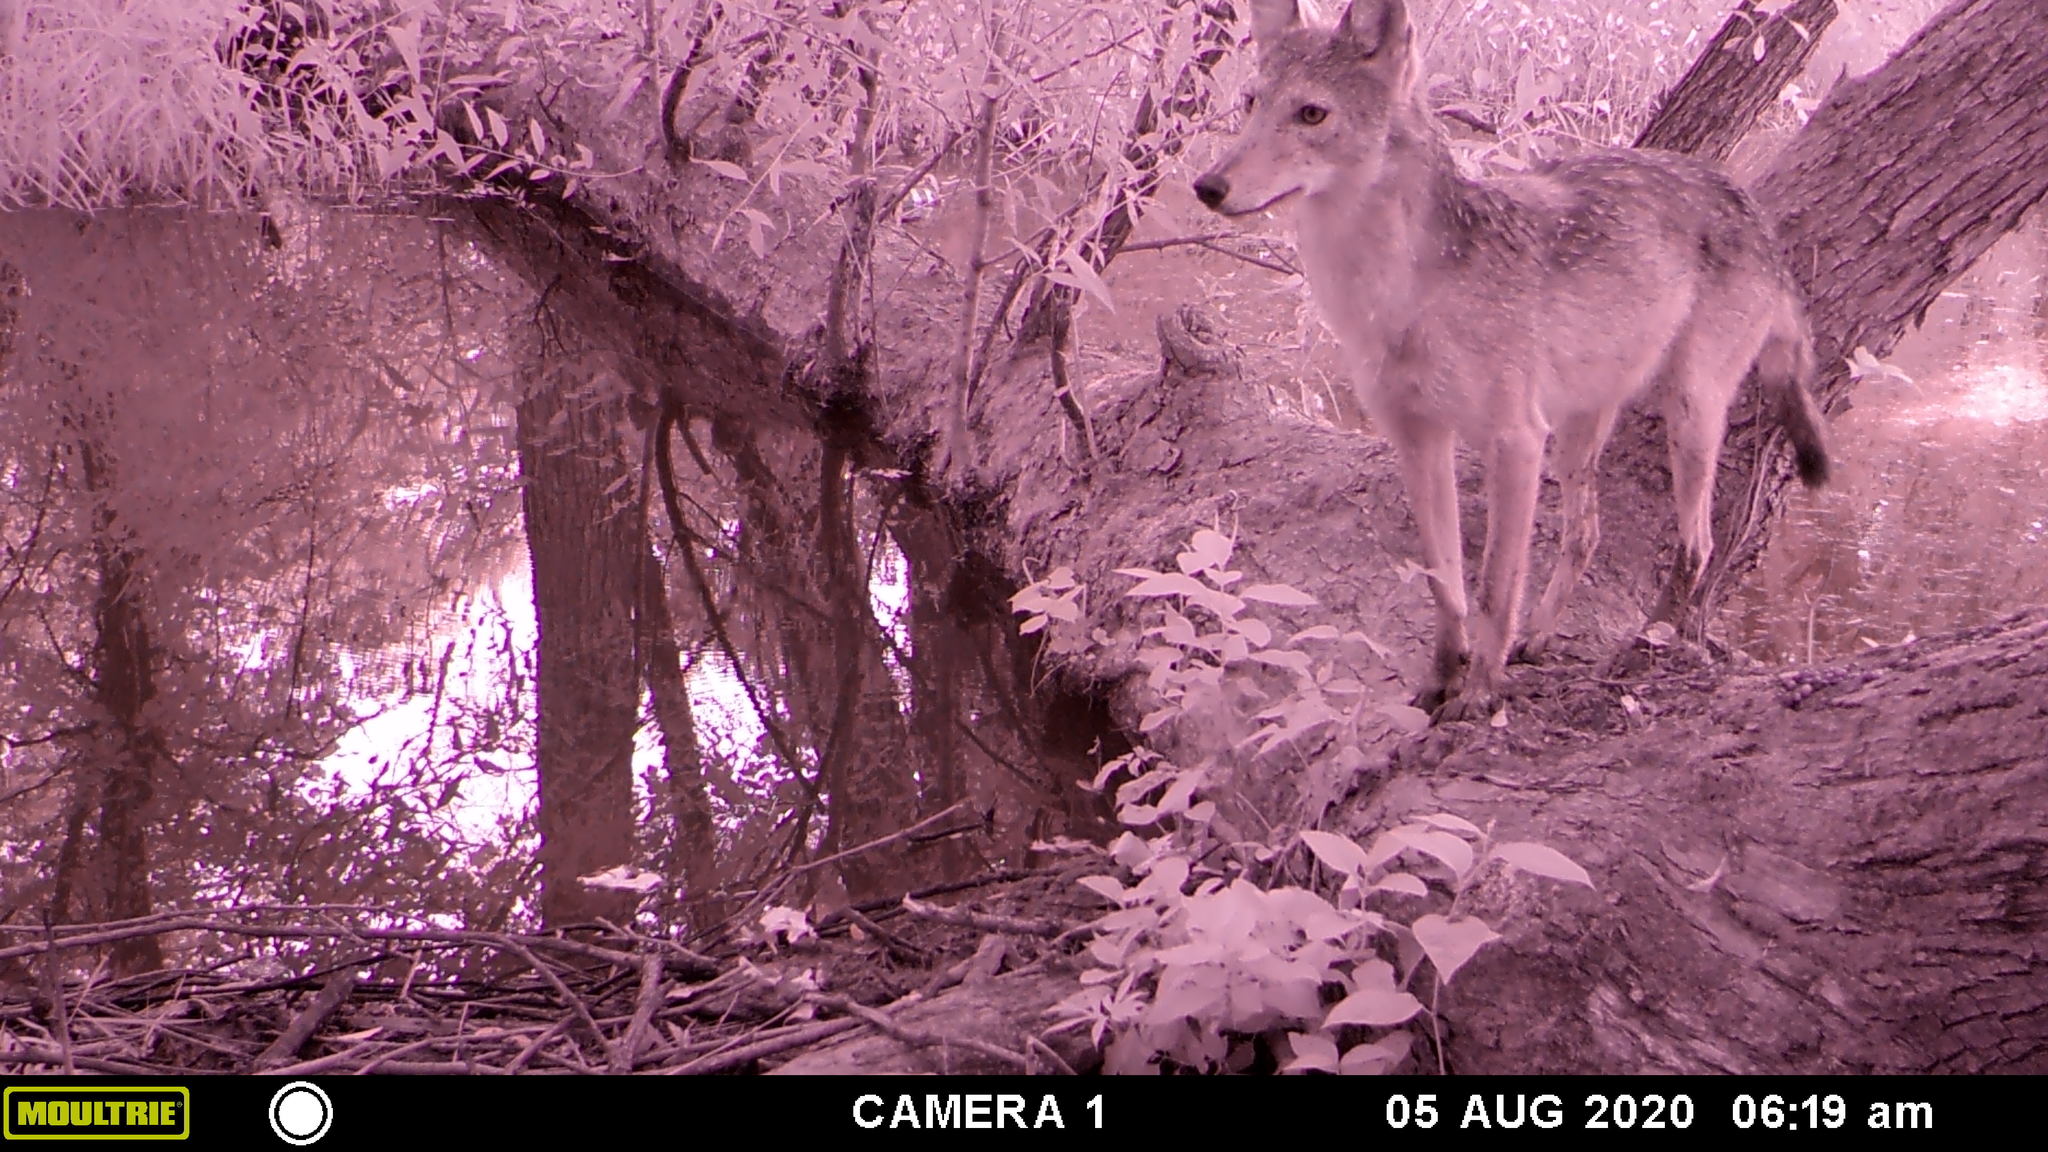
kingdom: Animalia
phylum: Chordata
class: Mammalia
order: Carnivora
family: Canidae
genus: Canis
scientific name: Canis latrans
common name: Coyote
